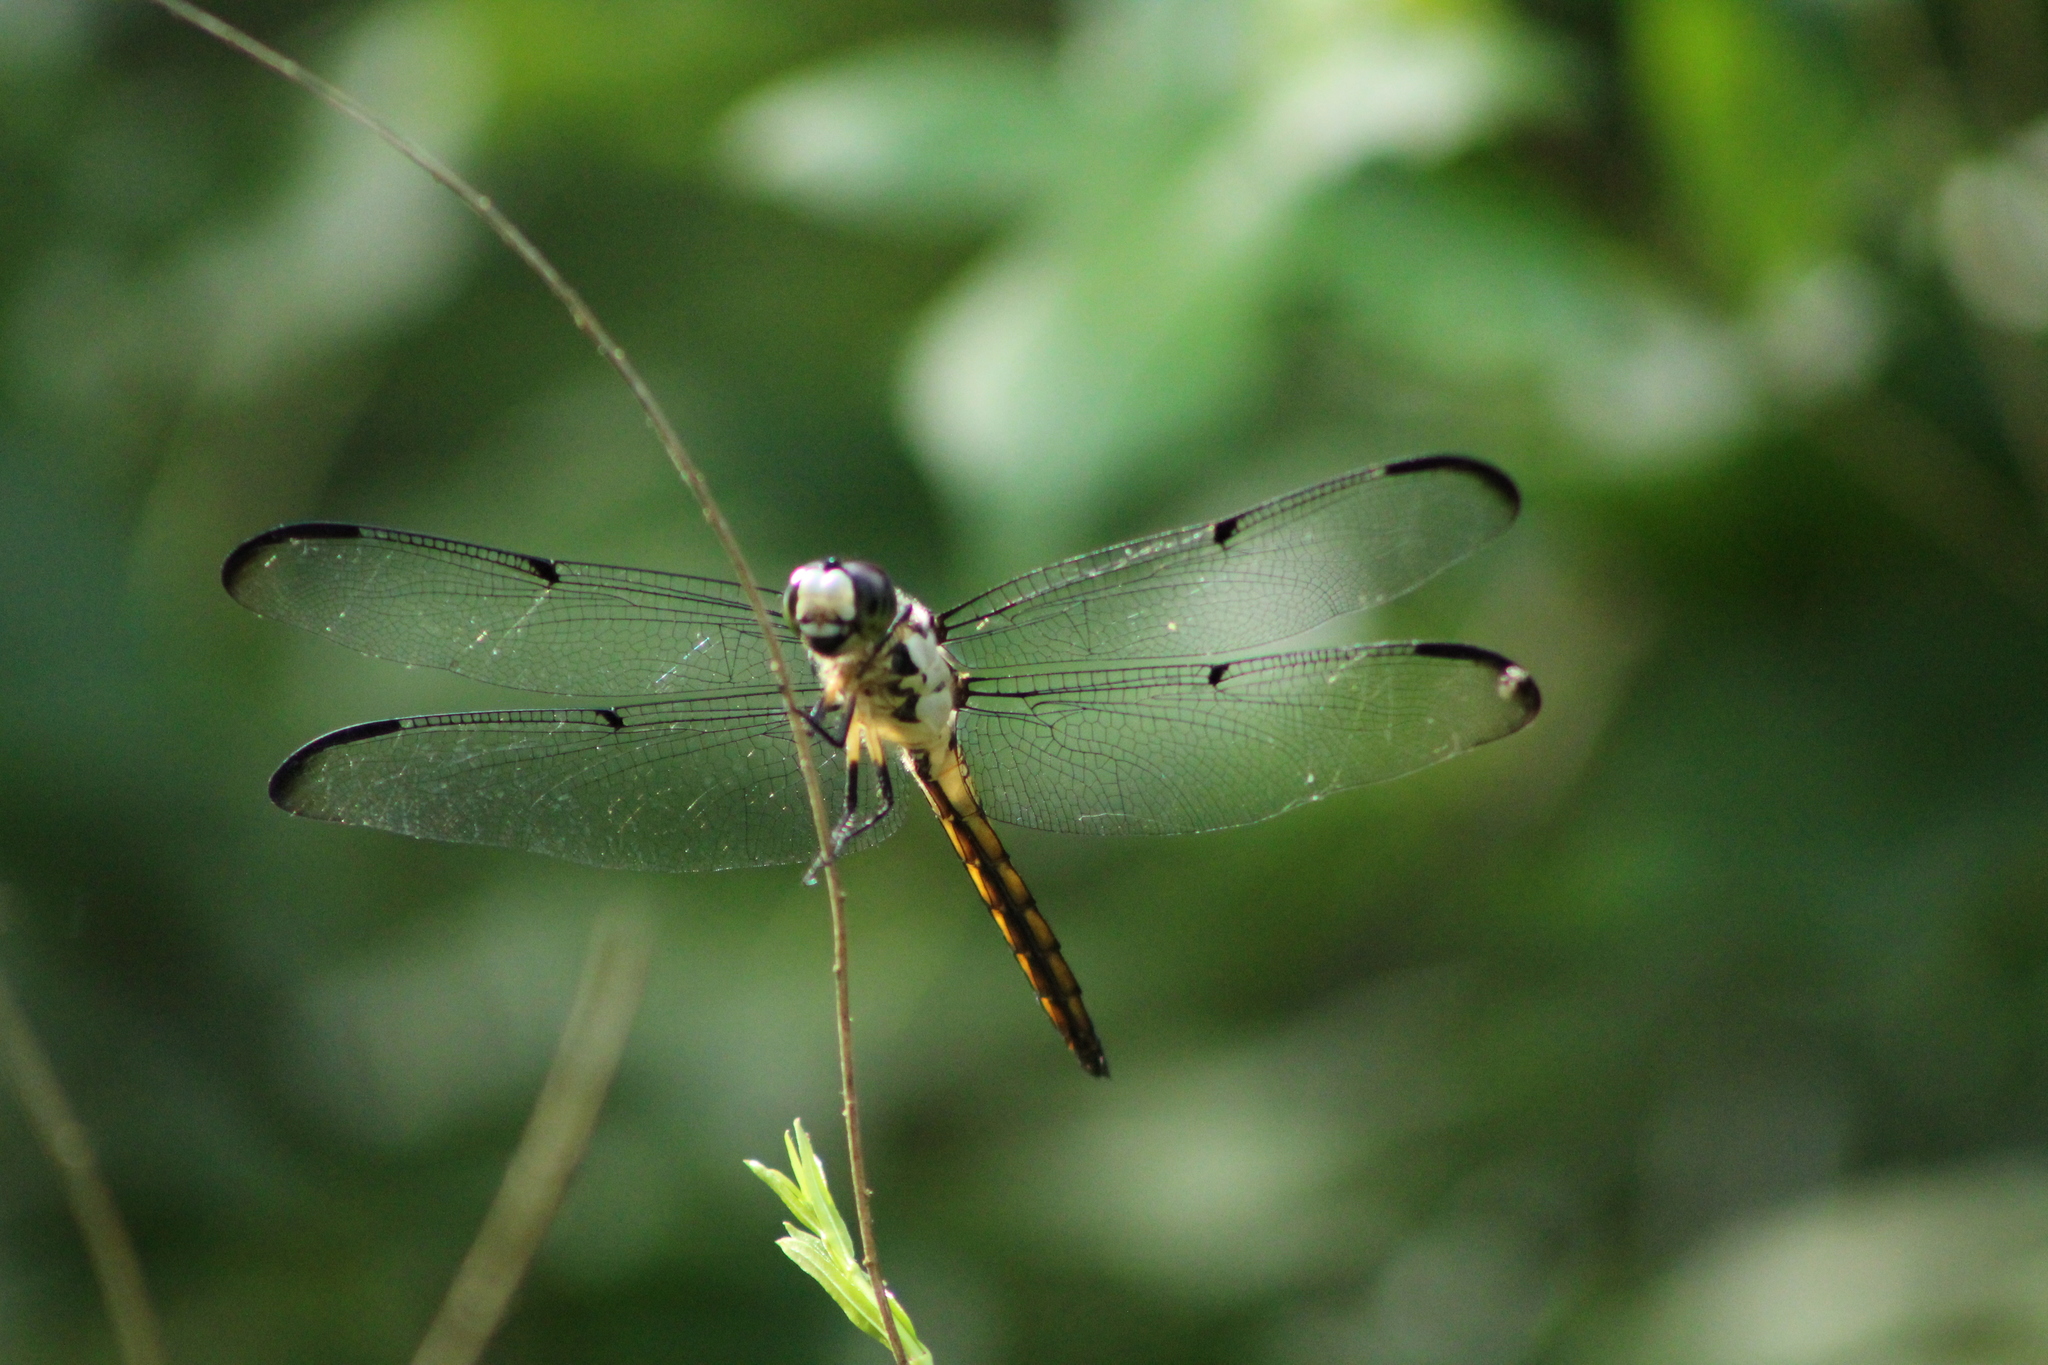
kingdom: Animalia
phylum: Arthropoda
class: Insecta
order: Odonata
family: Libellulidae
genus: Libellula
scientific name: Libellula vibrans
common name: Great blue skimmer
